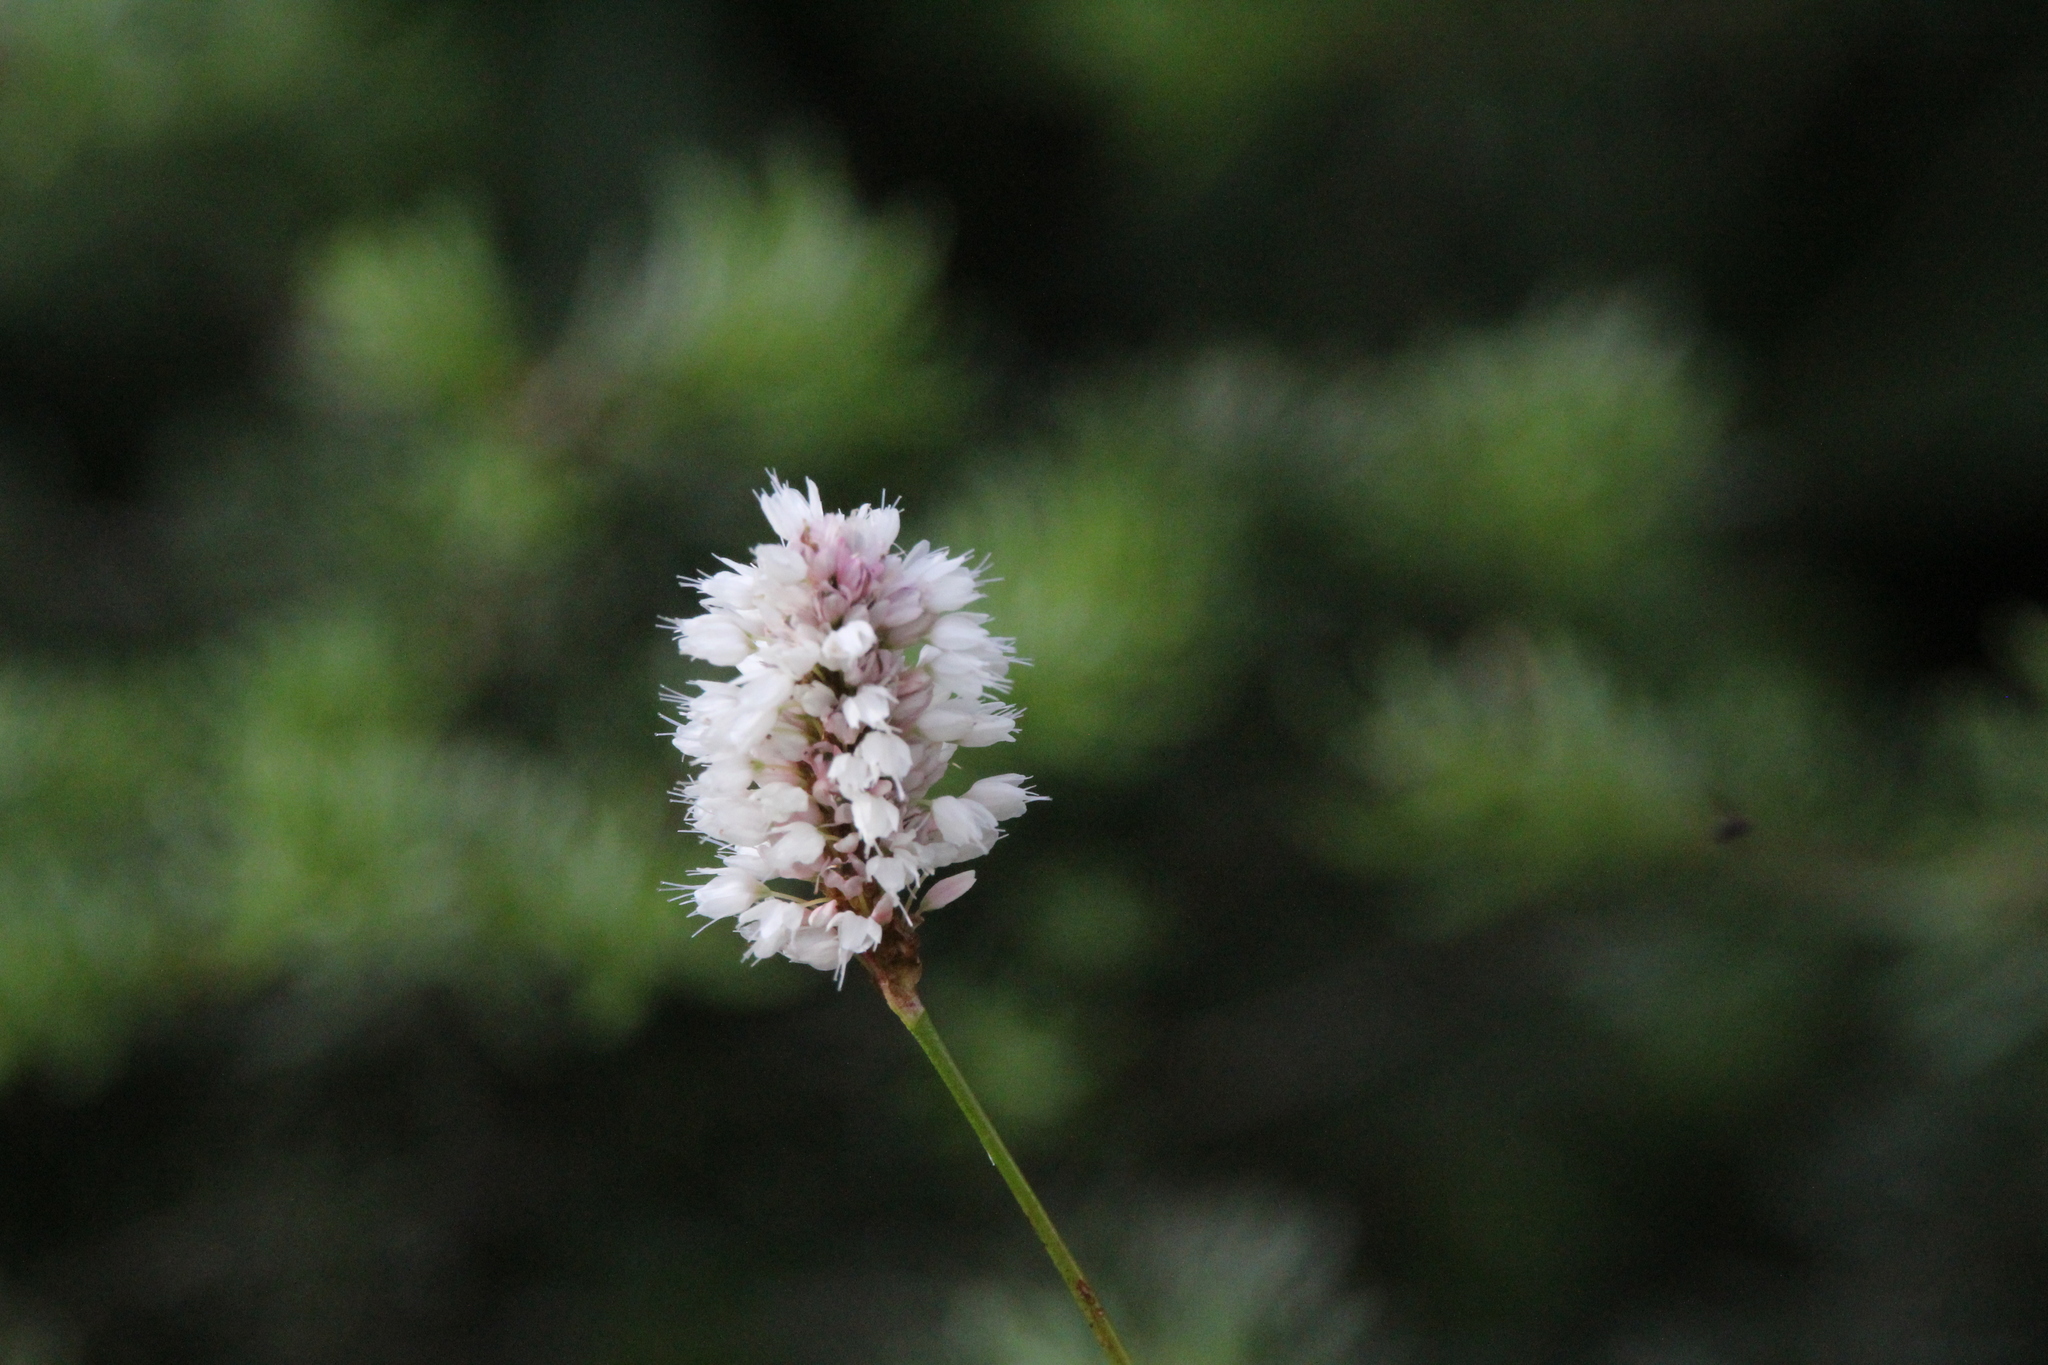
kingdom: Plantae
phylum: Tracheophyta
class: Magnoliopsida
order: Caryophyllales
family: Polygonaceae
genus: Bistorta
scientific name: Bistorta bistortoides
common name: American bistort
